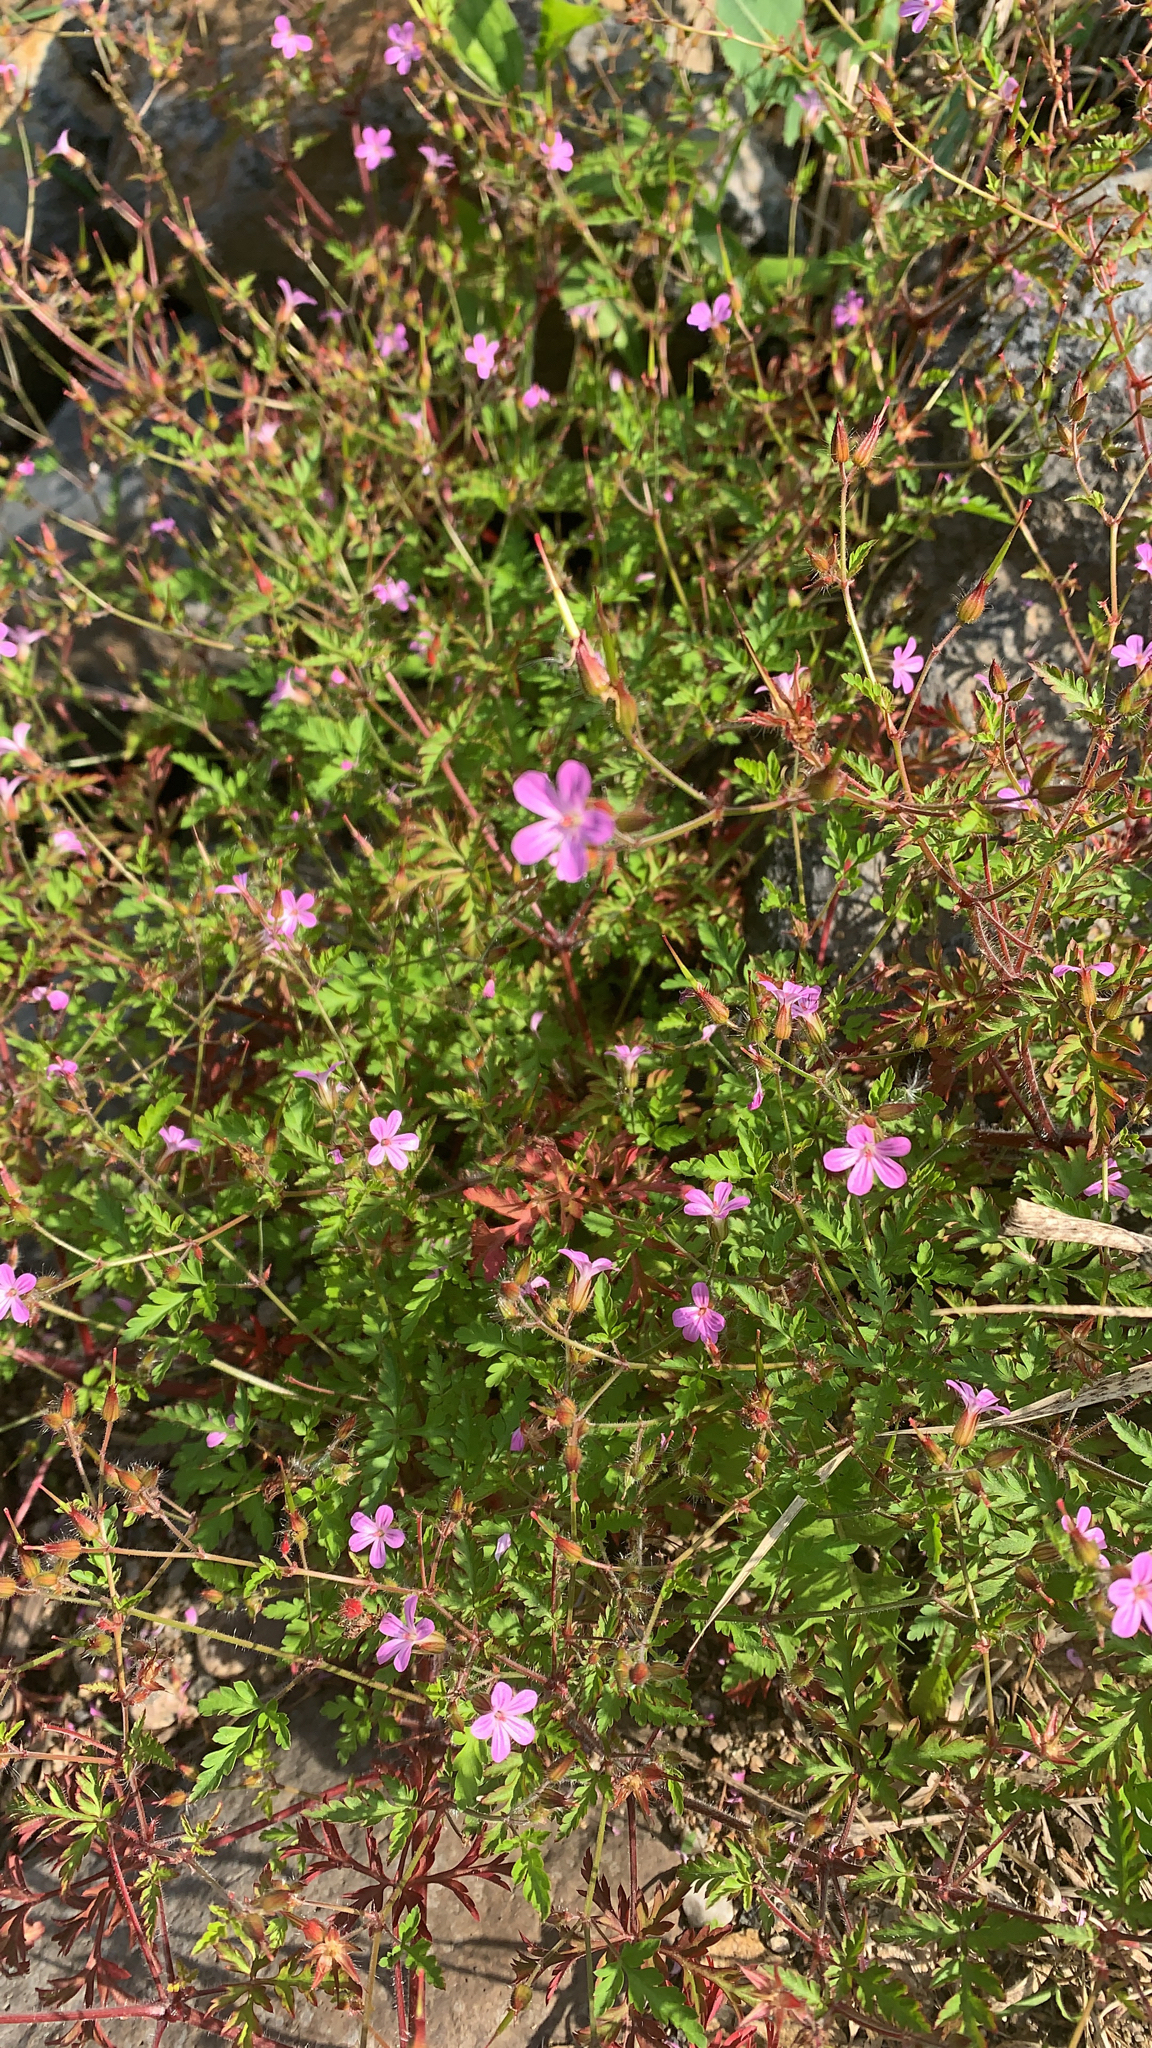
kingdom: Plantae
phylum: Tracheophyta
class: Magnoliopsida
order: Geraniales
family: Geraniaceae
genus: Geranium
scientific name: Geranium robertianum
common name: Herb-robert
